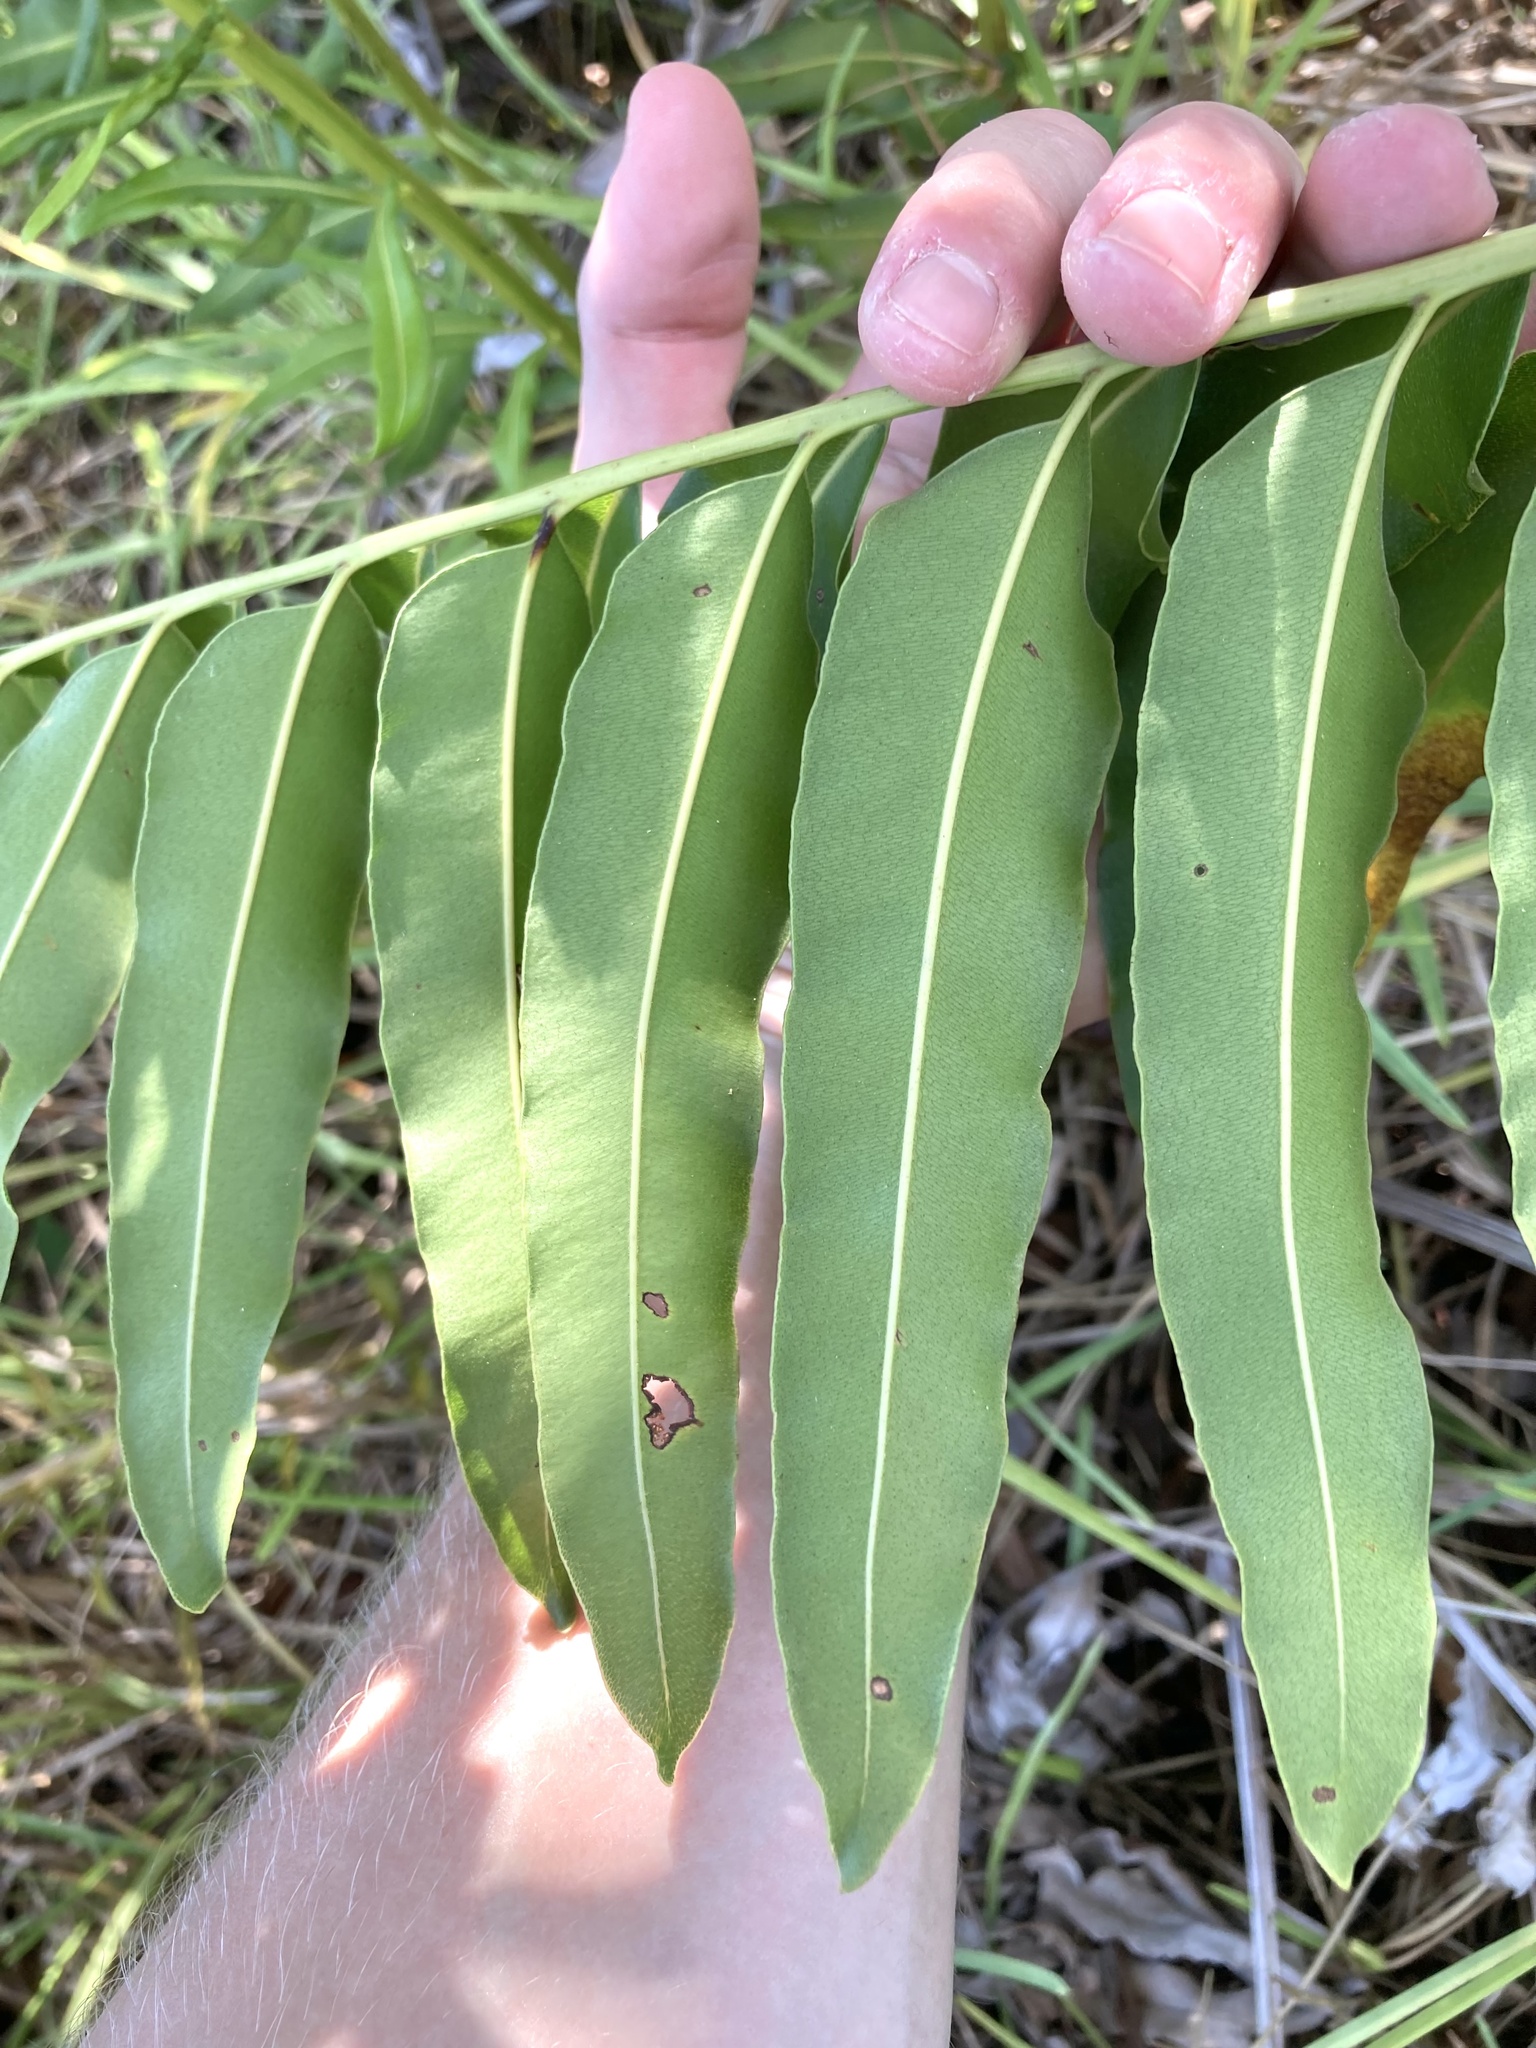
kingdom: Plantae
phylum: Tracheophyta
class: Polypodiopsida
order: Polypodiales
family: Pteridaceae
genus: Acrostichum
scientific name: Acrostichum danaeifolium
